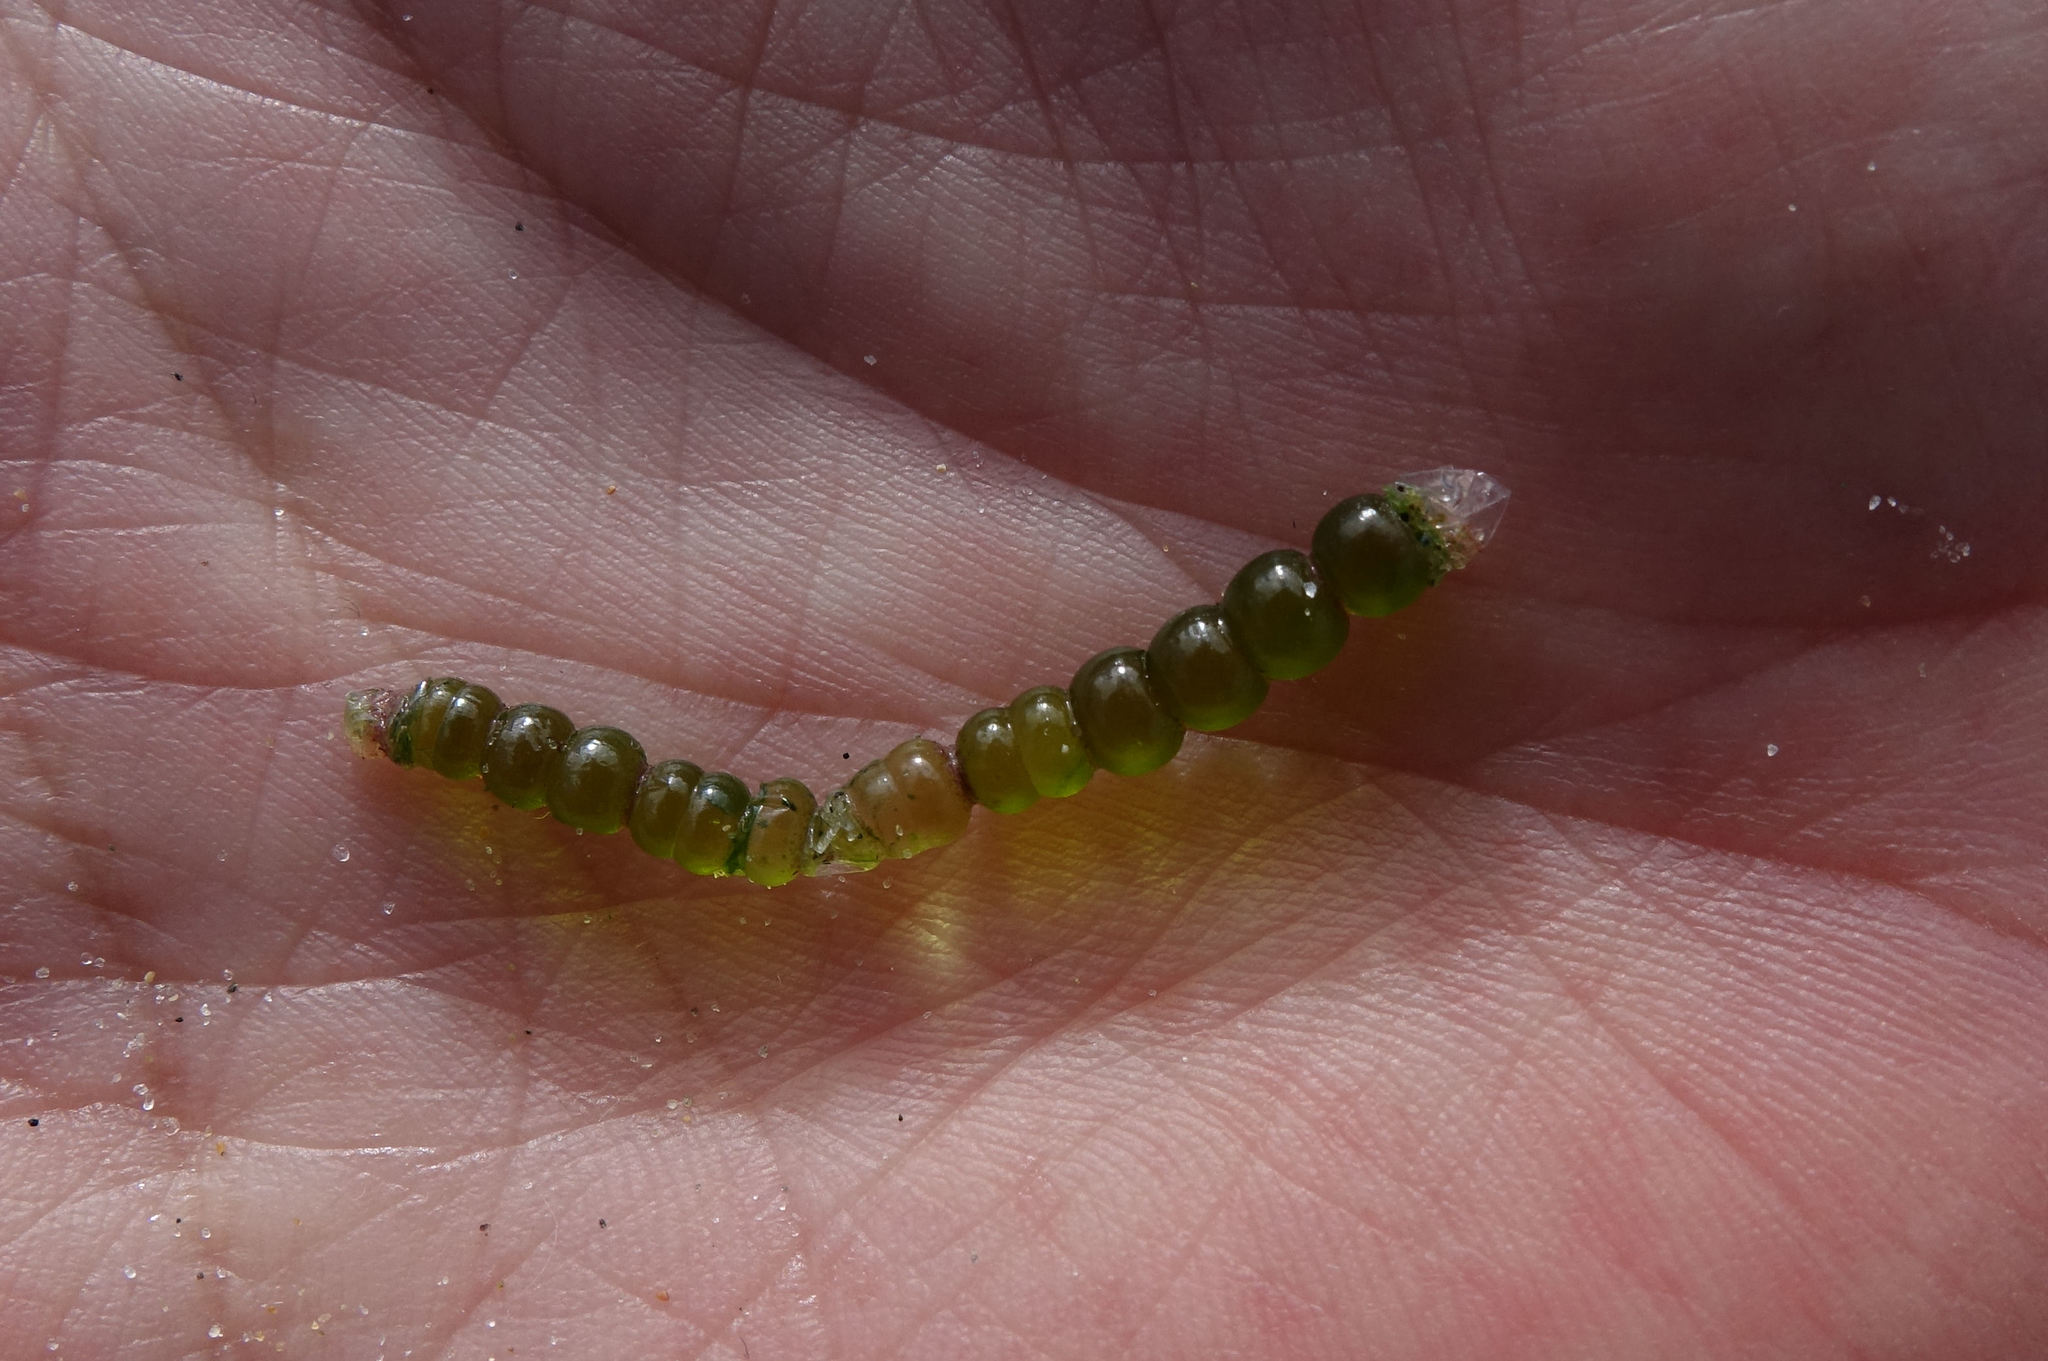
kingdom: Plantae
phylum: Chlorophyta
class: Ulvophyceae
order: Cladophorales
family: Cladophoraceae
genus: Chaetomorpha
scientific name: Chaetomorpha coliformis
